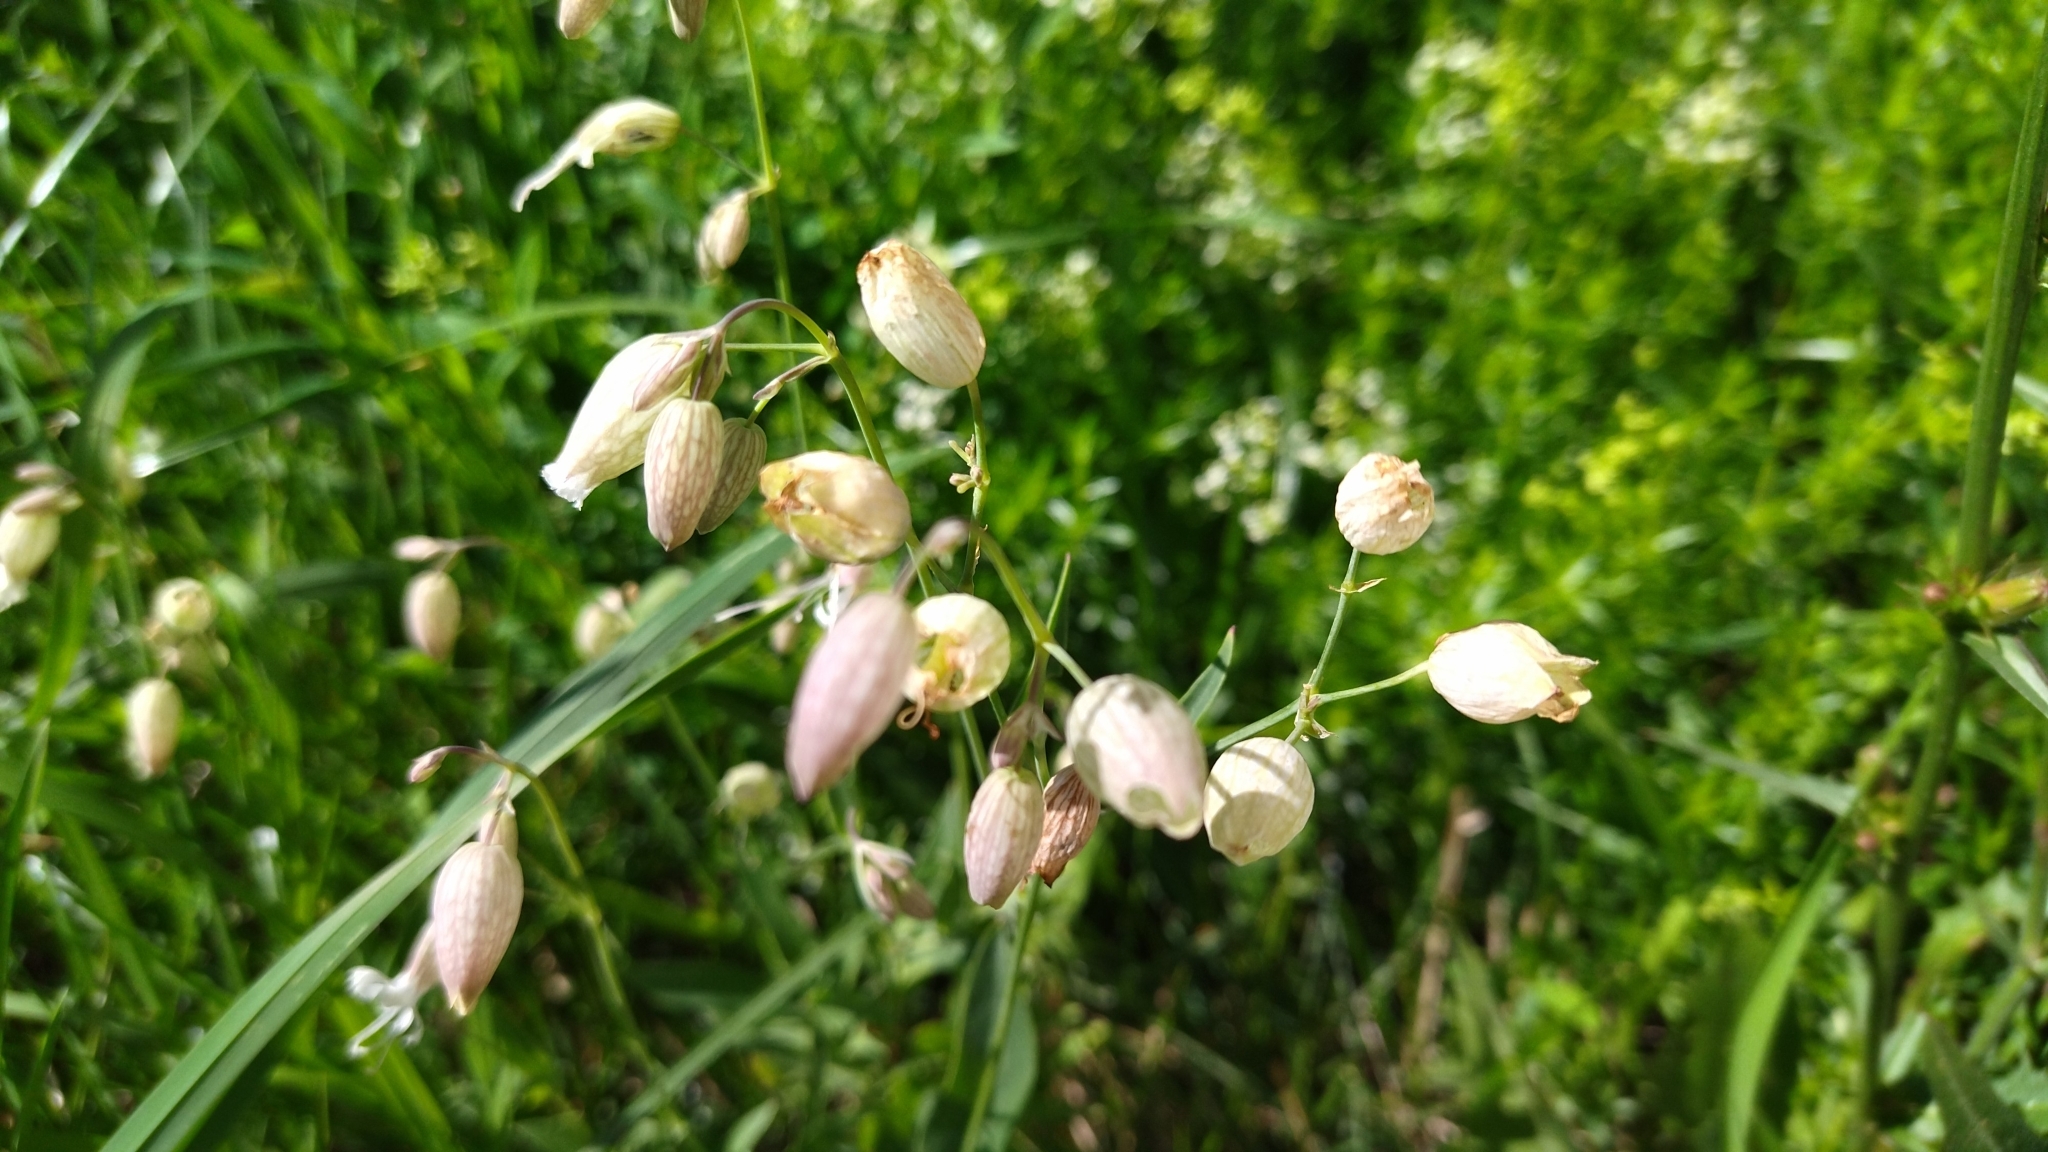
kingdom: Plantae
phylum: Tracheophyta
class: Magnoliopsida
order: Caryophyllales
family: Caryophyllaceae
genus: Silene
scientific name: Silene vulgaris
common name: Bladder campion
